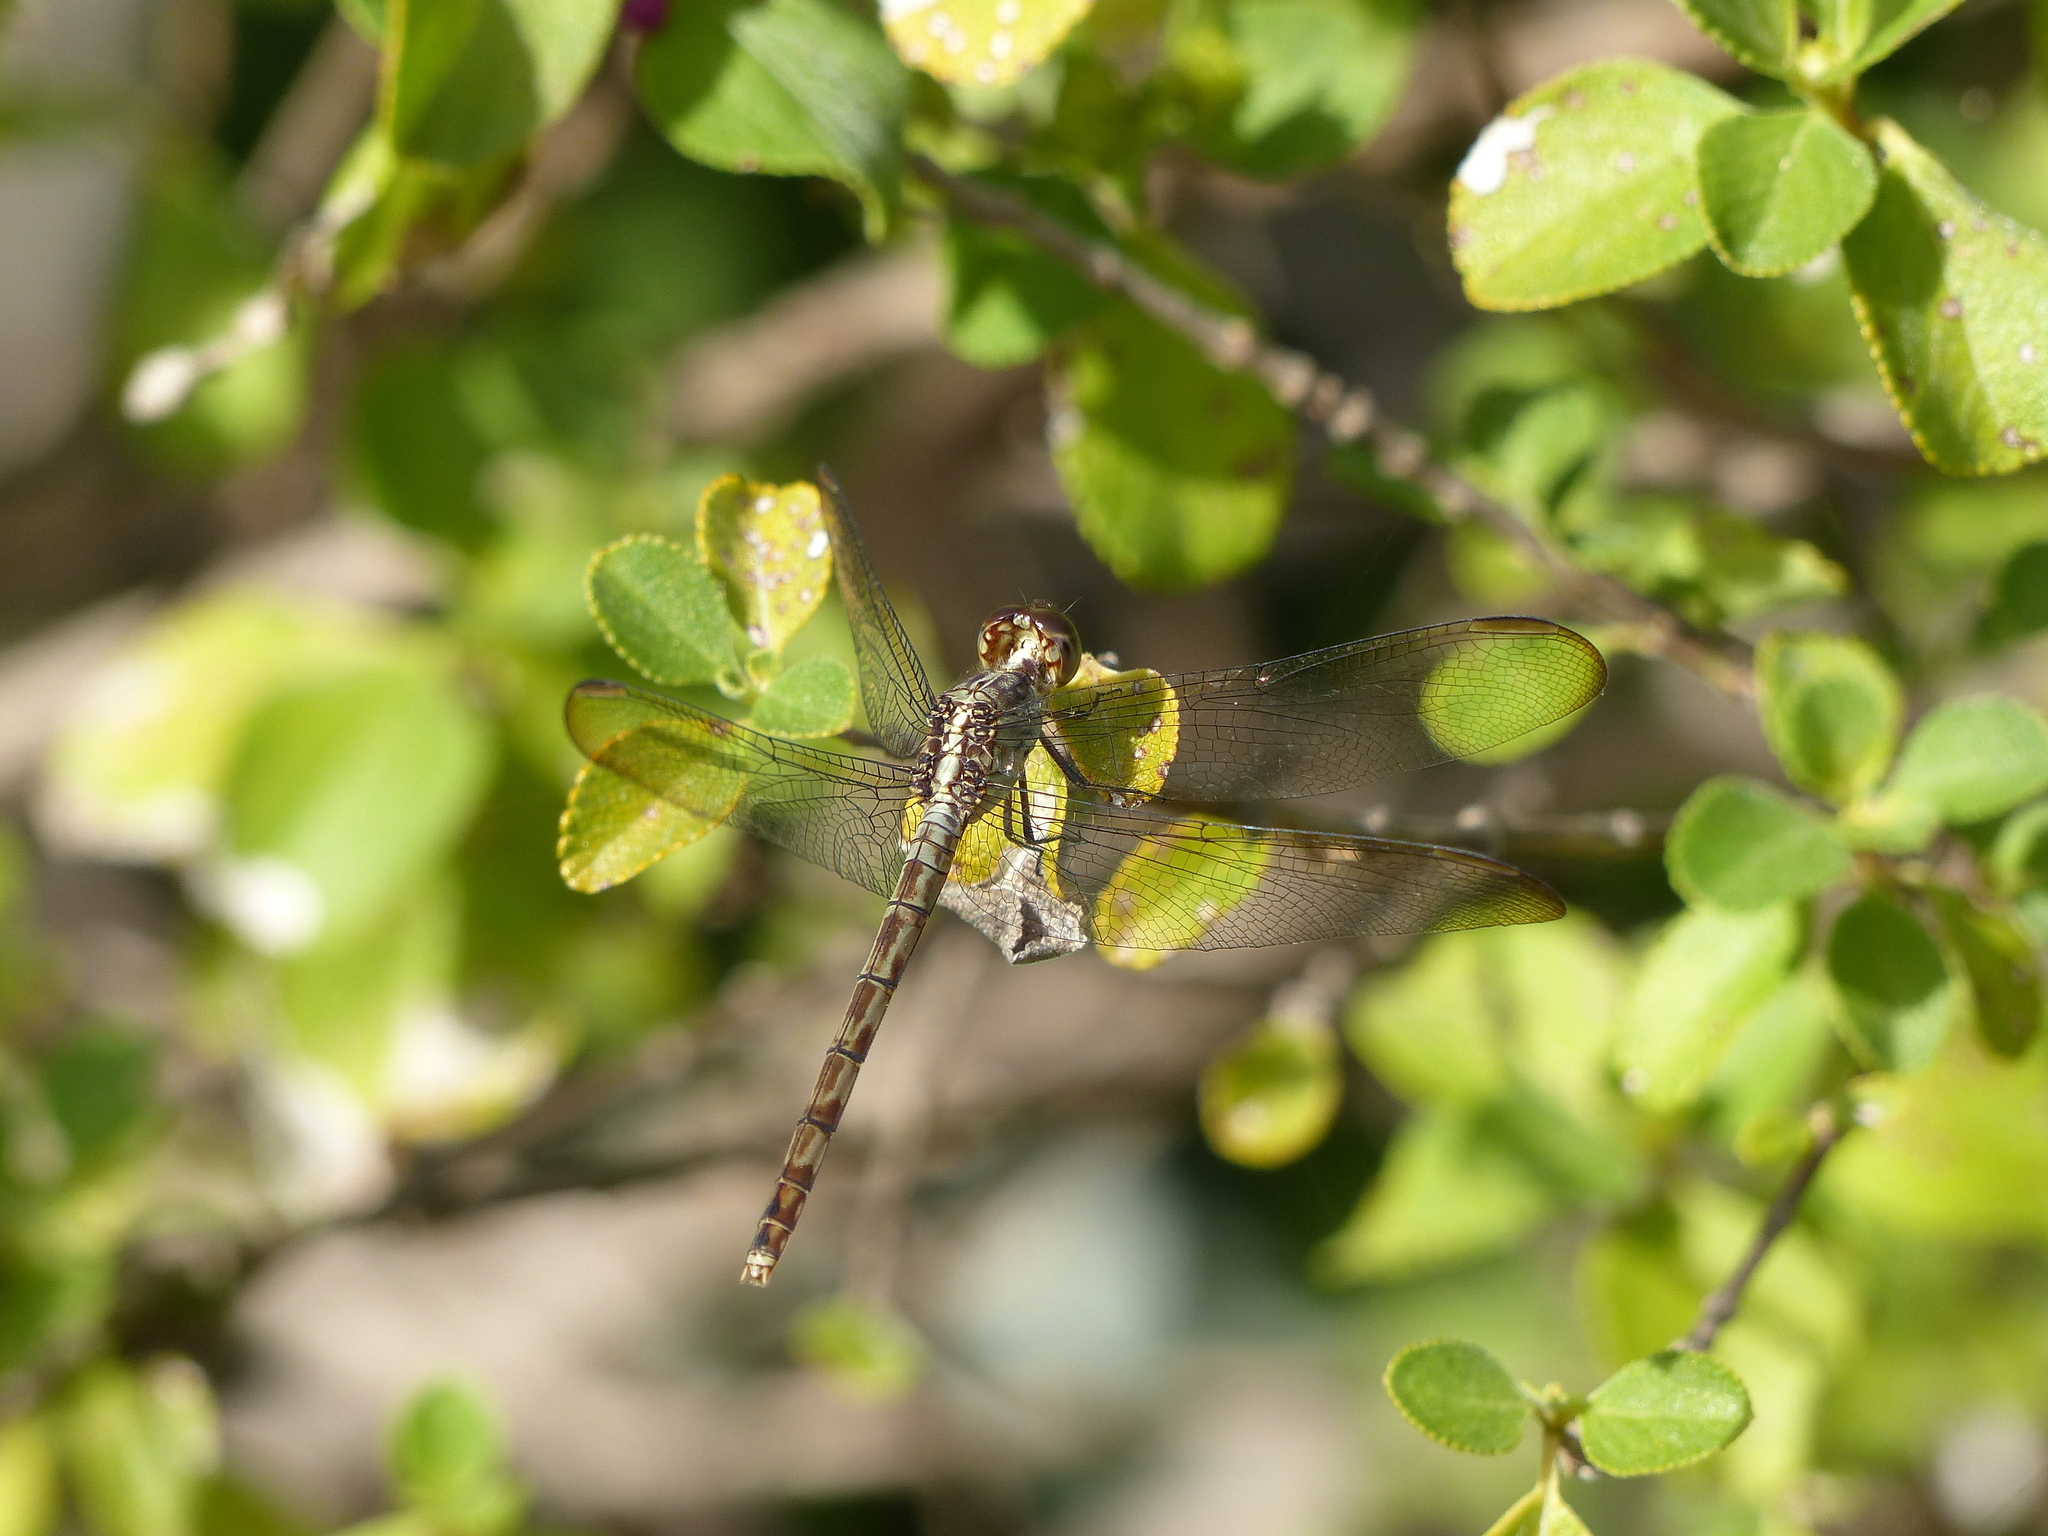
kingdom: Animalia
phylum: Arthropoda
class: Insecta
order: Odonata
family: Libellulidae
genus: Erythrodiplax
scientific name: Erythrodiplax umbrata
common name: Band-winged dragonlet
